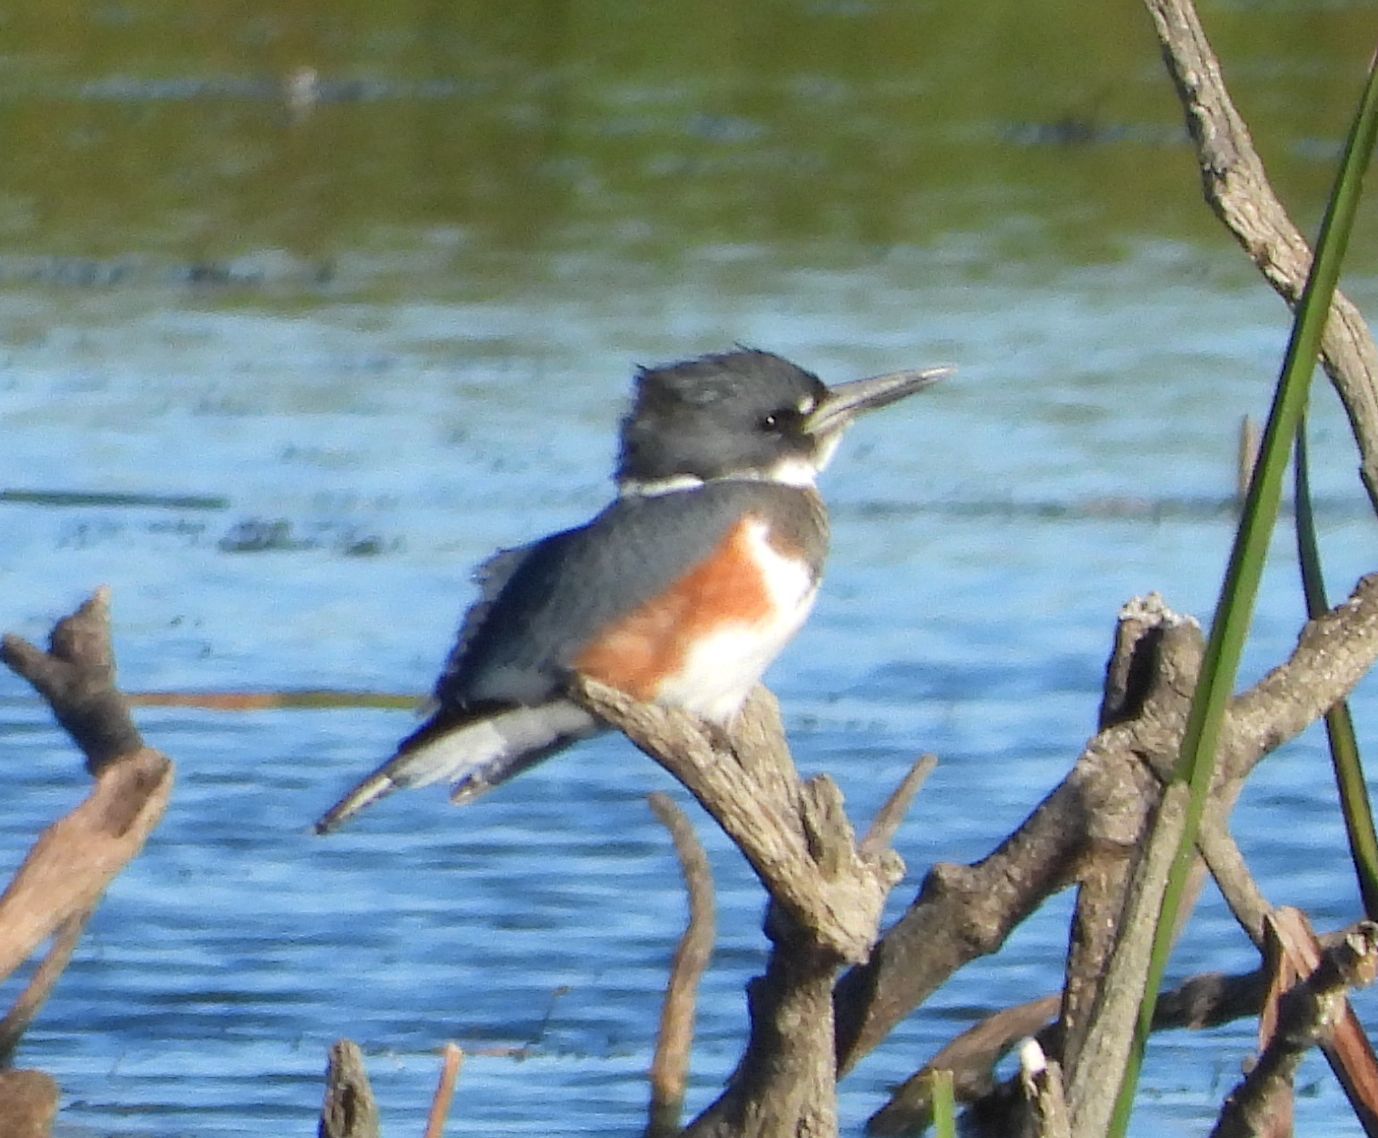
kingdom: Animalia
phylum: Chordata
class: Aves
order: Coraciiformes
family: Alcedinidae
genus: Megaceryle
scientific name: Megaceryle alcyon
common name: Belted kingfisher
